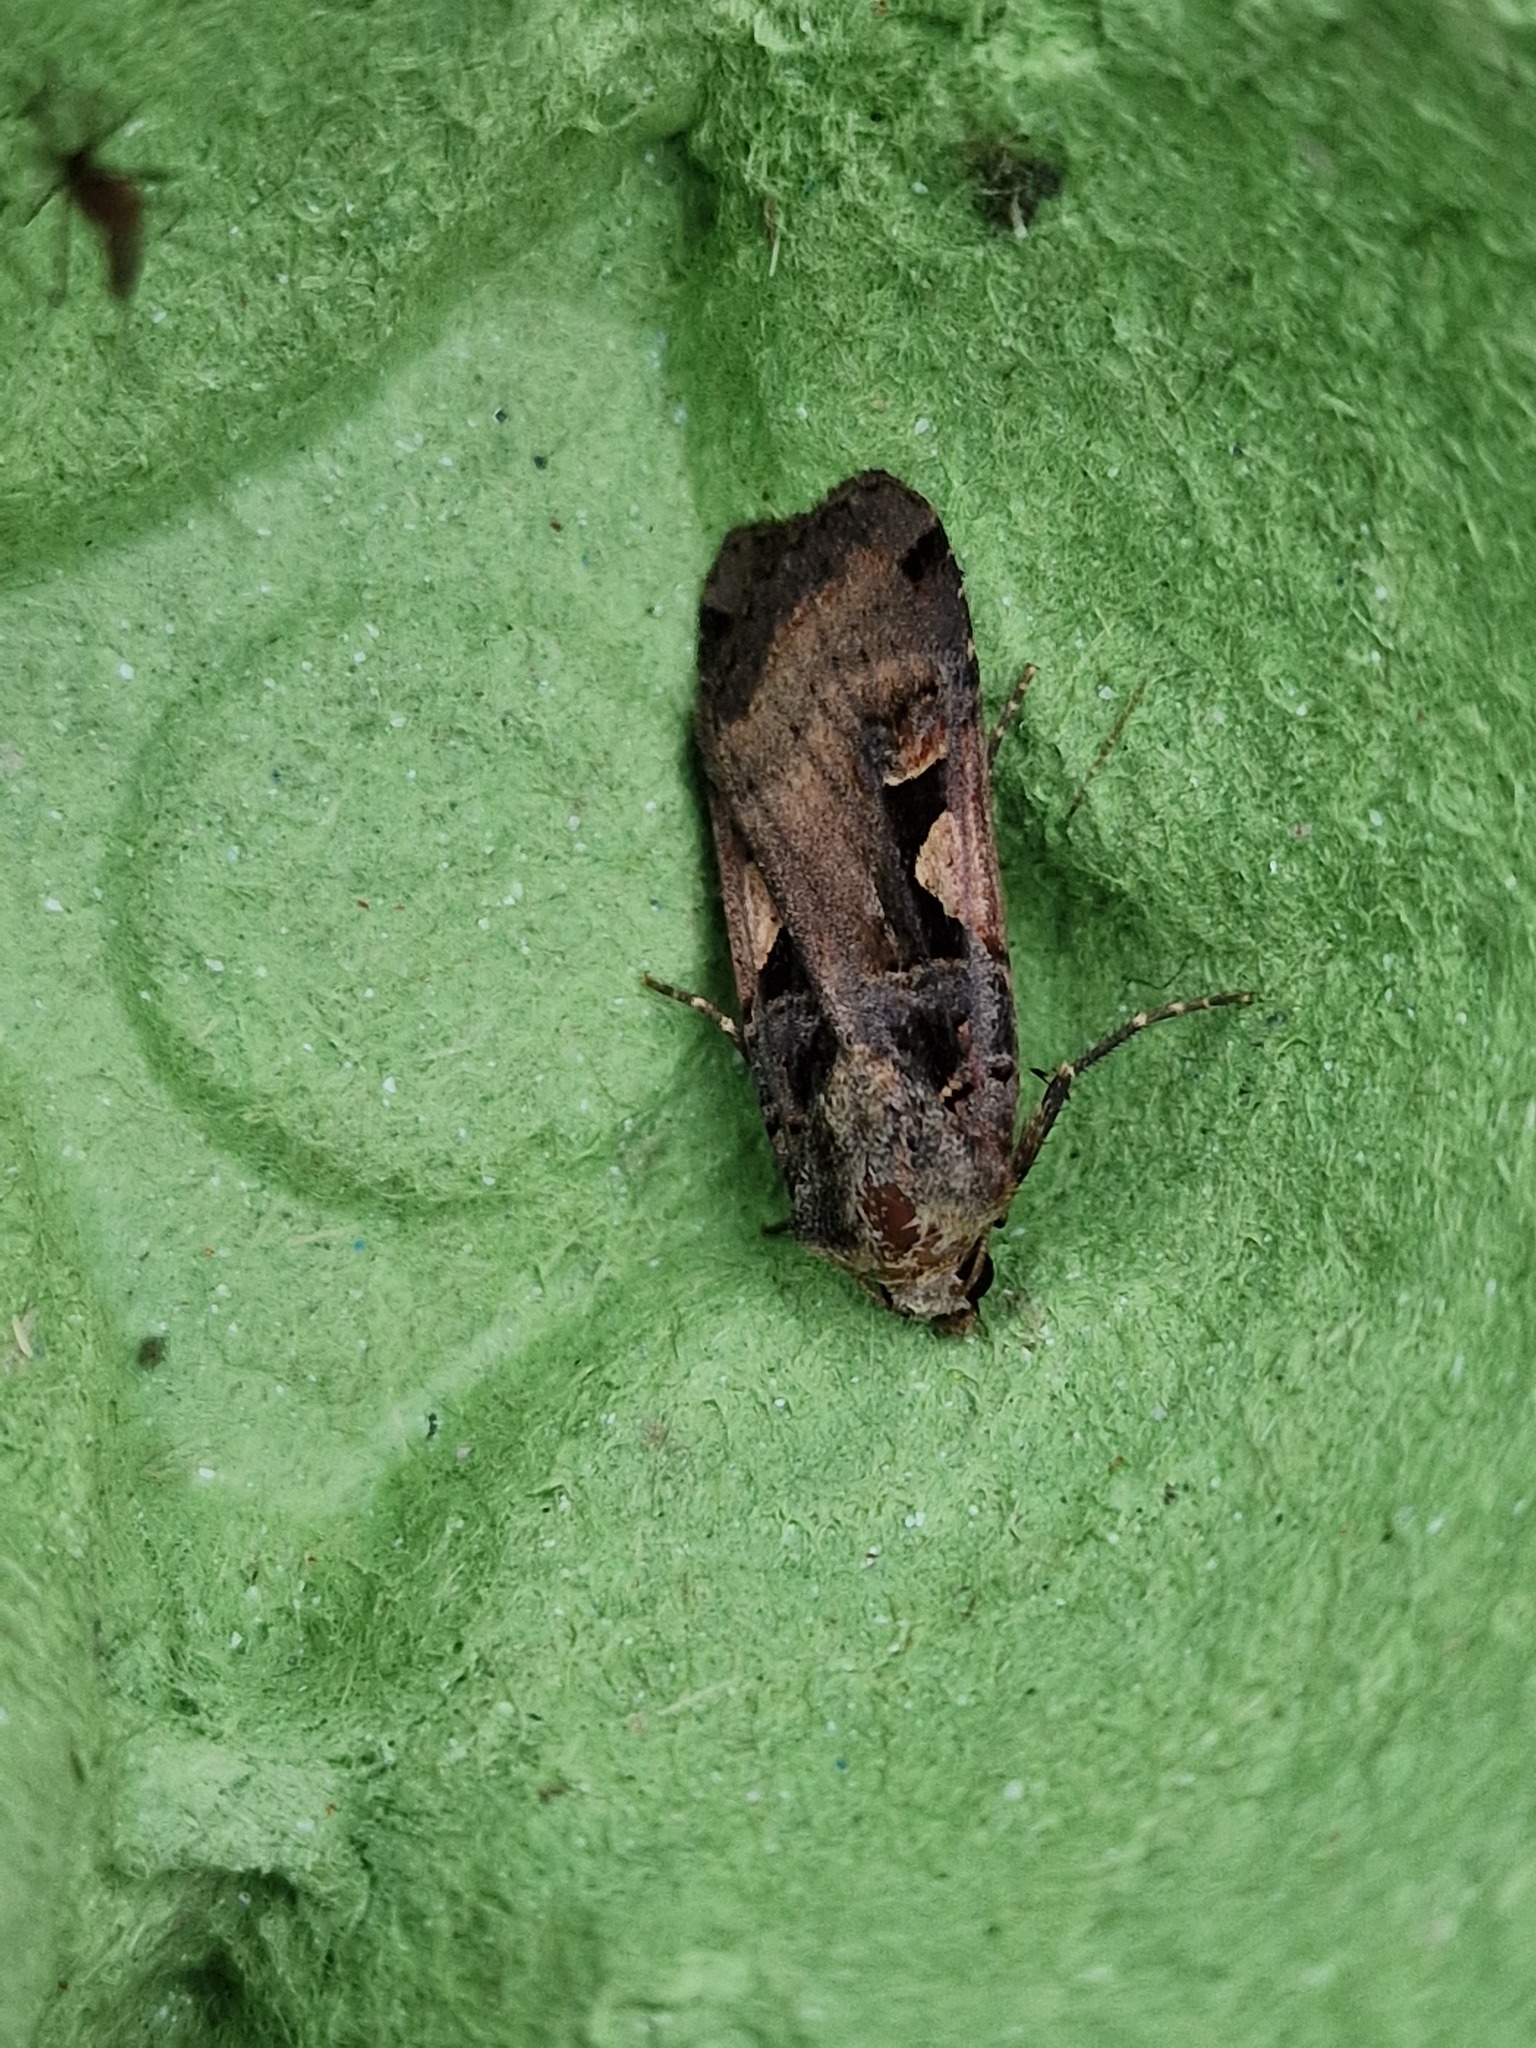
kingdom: Animalia
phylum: Arthropoda
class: Insecta
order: Lepidoptera
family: Noctuidae
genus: Xestia
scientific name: Xestia c-nigrum
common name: Setaceous hebrew character
